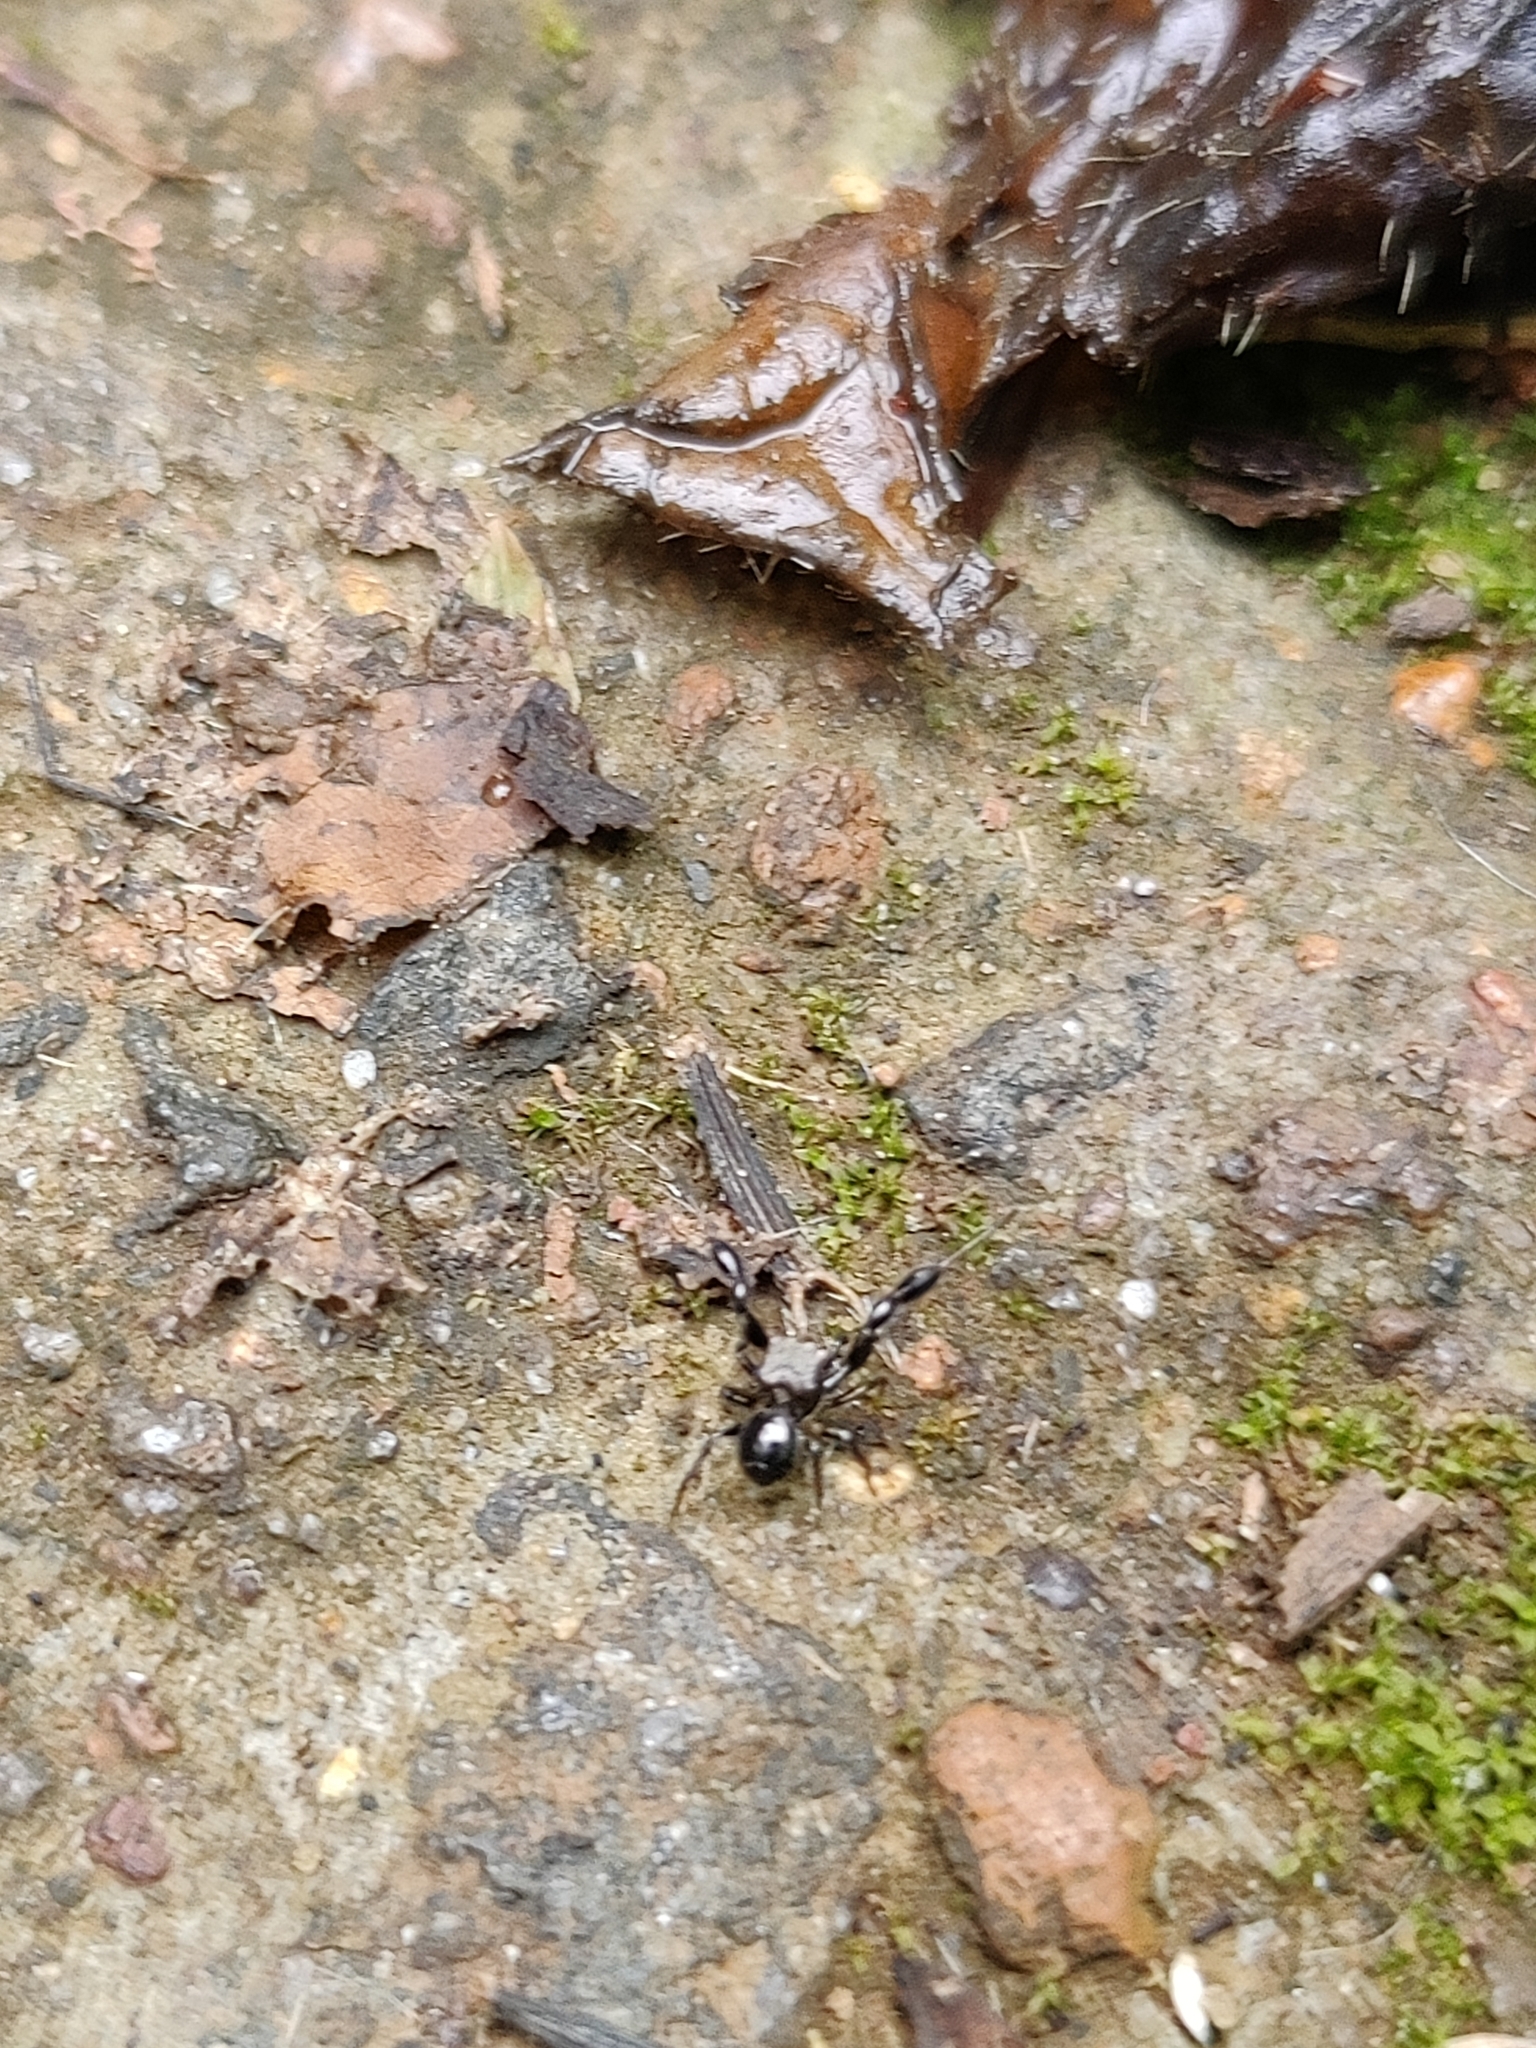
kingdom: Animalia
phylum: Arthropoda
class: Arachnida
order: Araneae
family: Salticidae
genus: Harmochirus
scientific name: Harmochirus brachiatus
